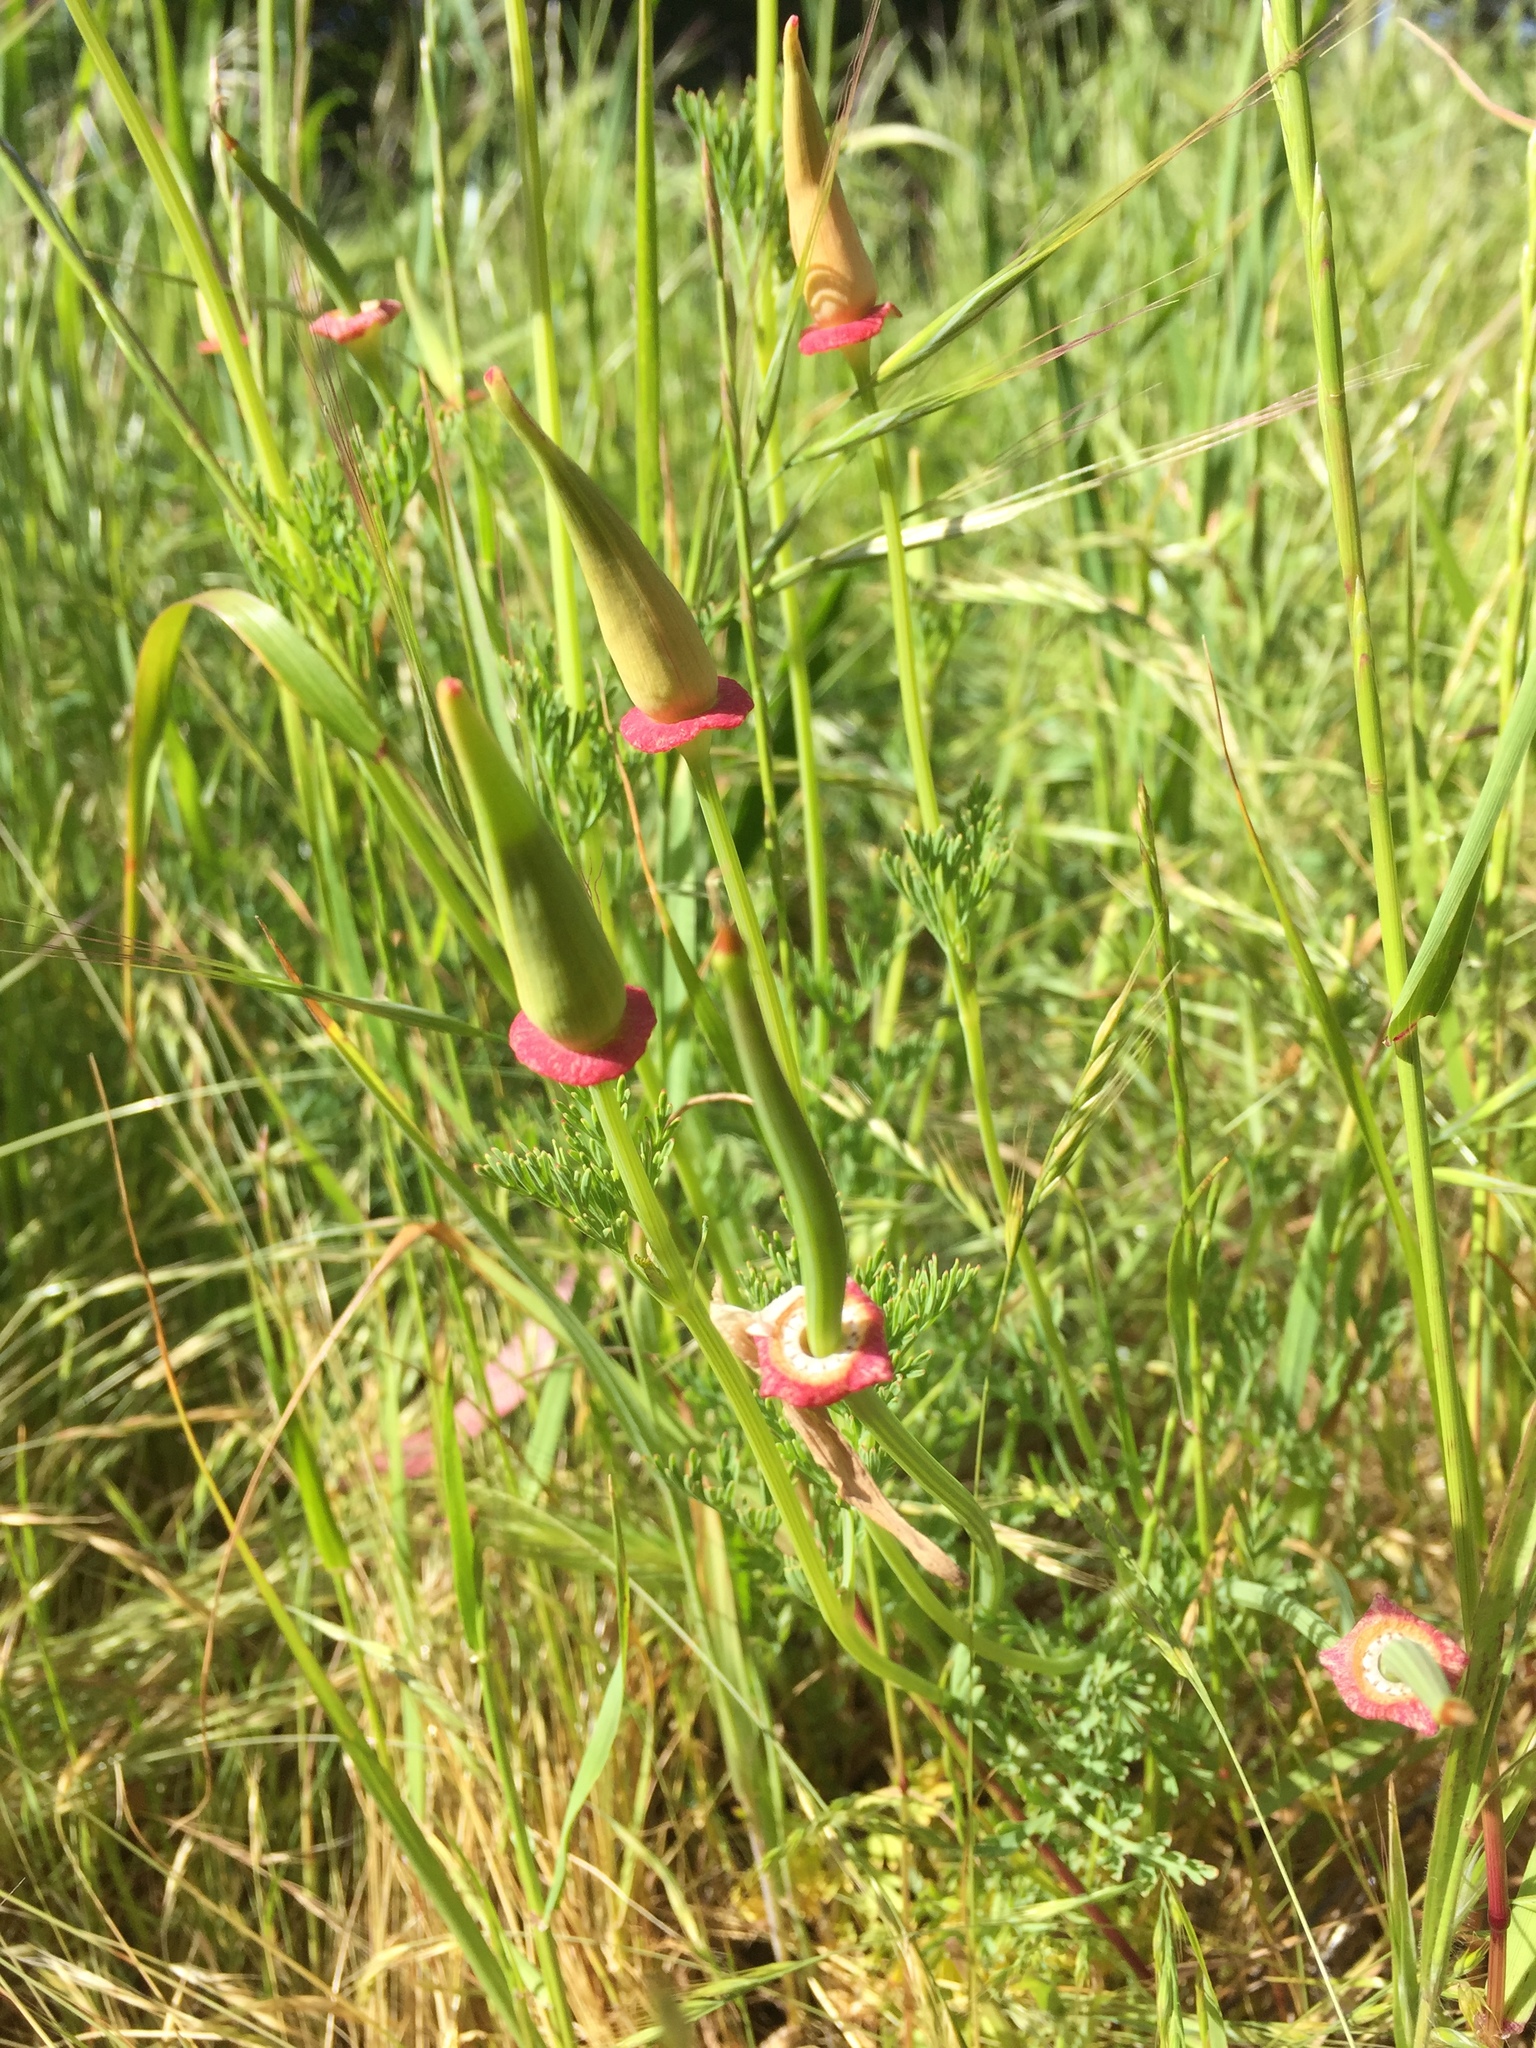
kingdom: Plantae
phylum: Tracheophyta
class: Magnoliopsida
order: Ranunculales
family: Papaveraceae
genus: Eschscholzia
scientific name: Eschscholzia californica
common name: California poppy
